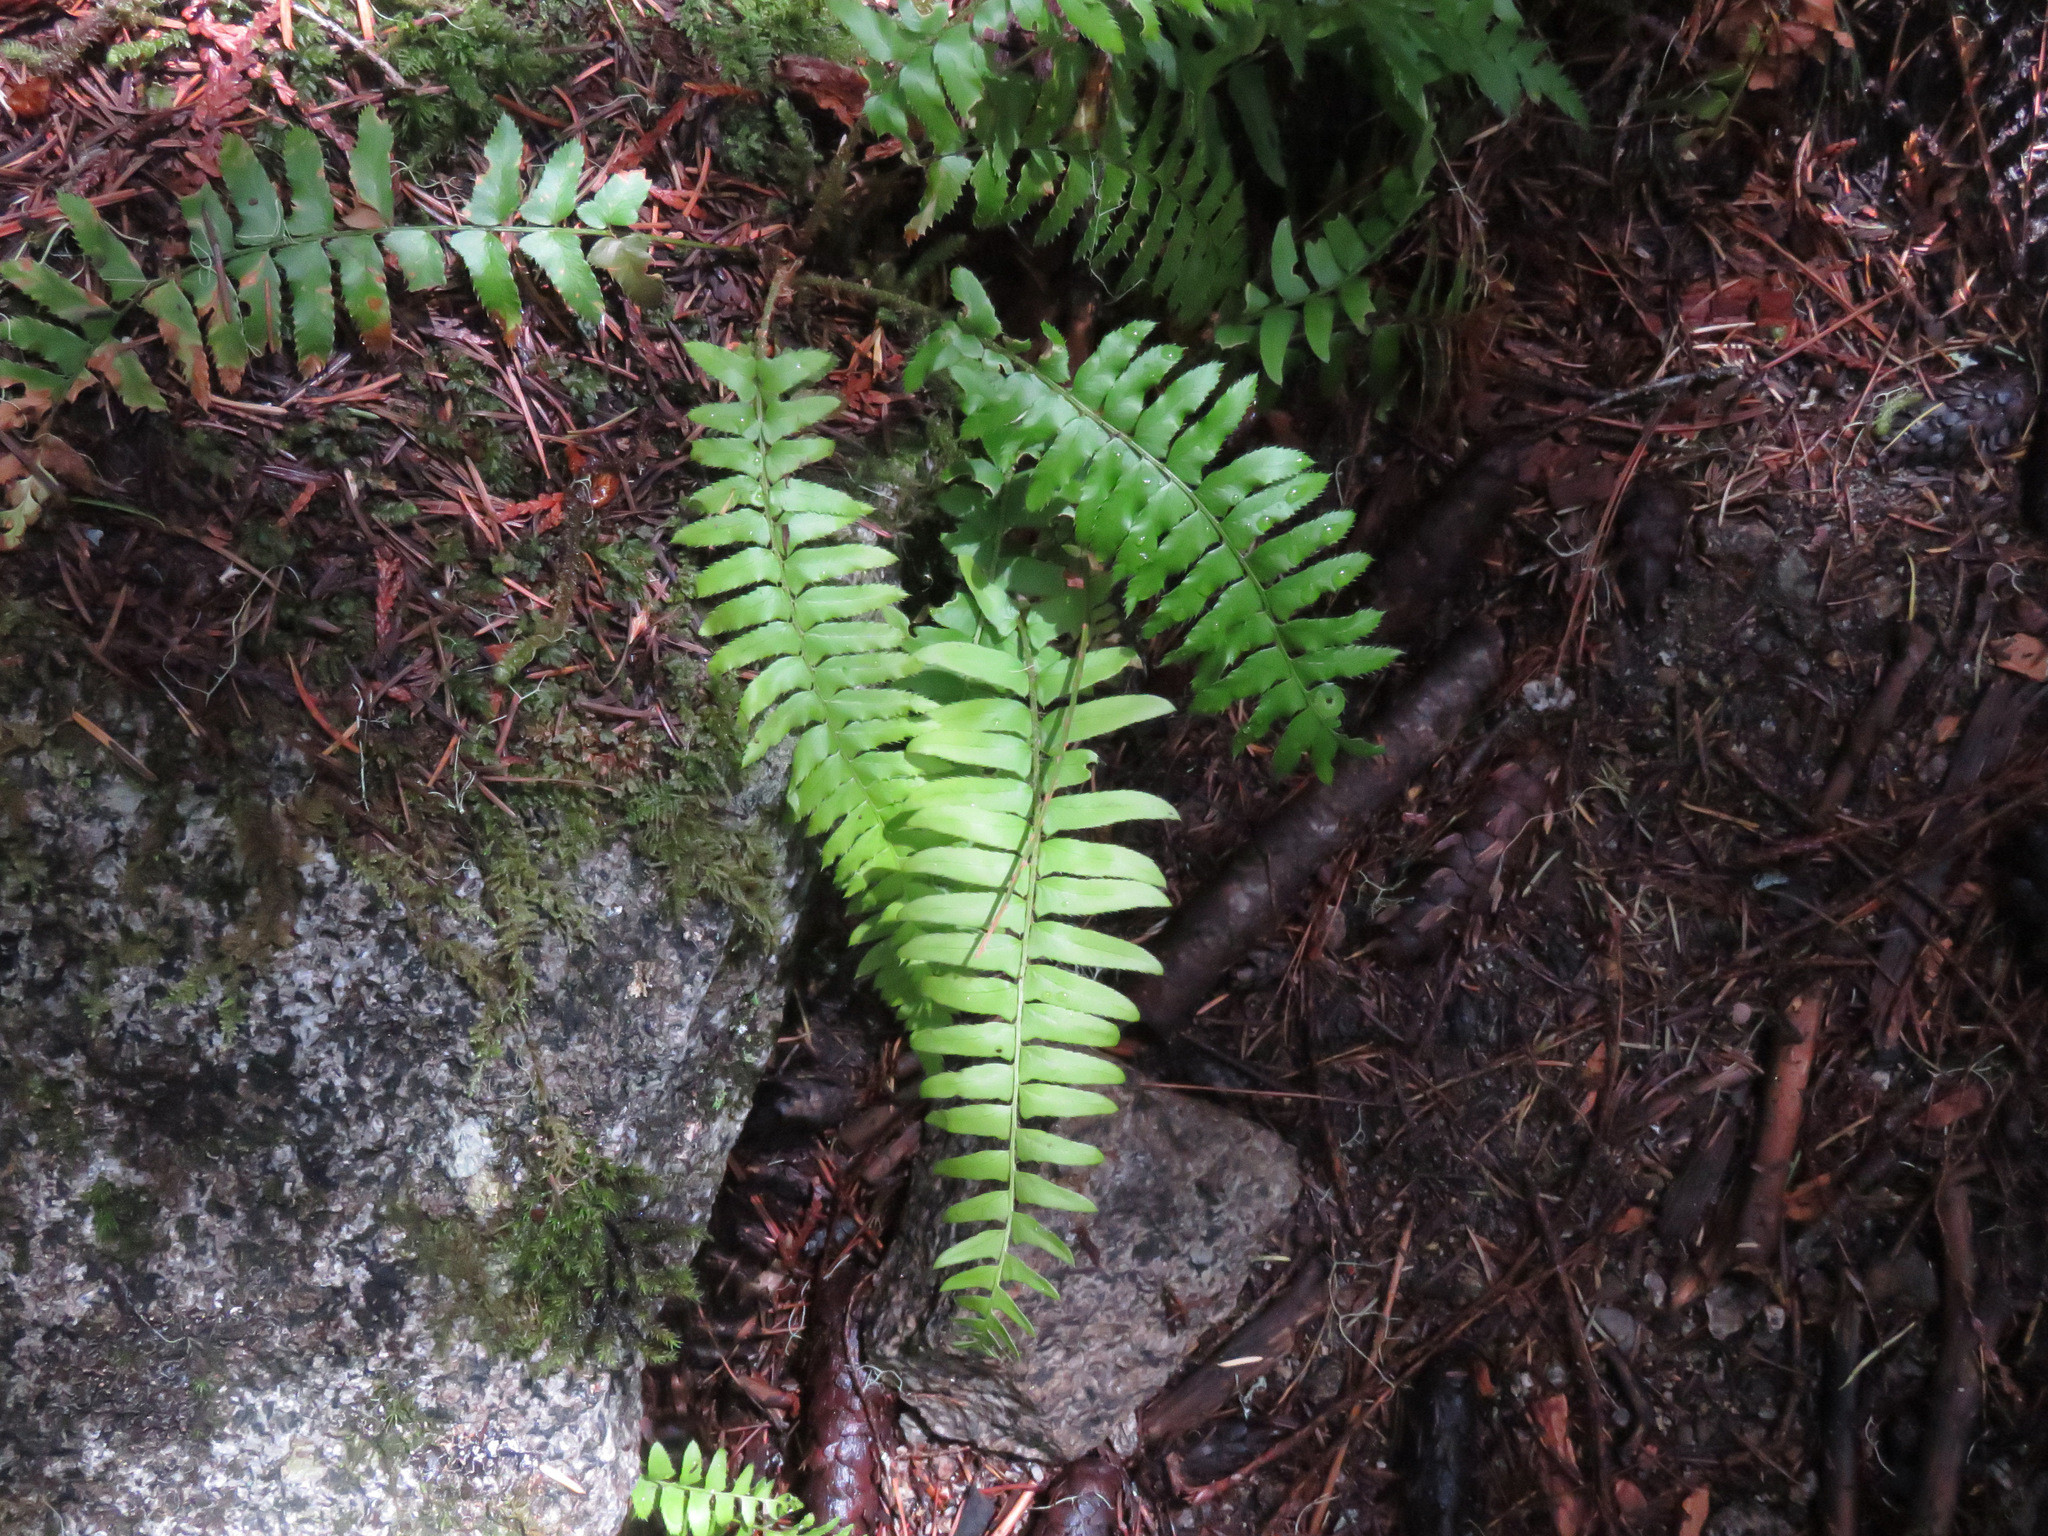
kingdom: Plantae
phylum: Tracheophyta
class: Polypodiopsida
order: Polypodiales
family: Dryopteridaceae
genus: Polystichum
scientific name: Polystichum munitum
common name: Western sword-fern
